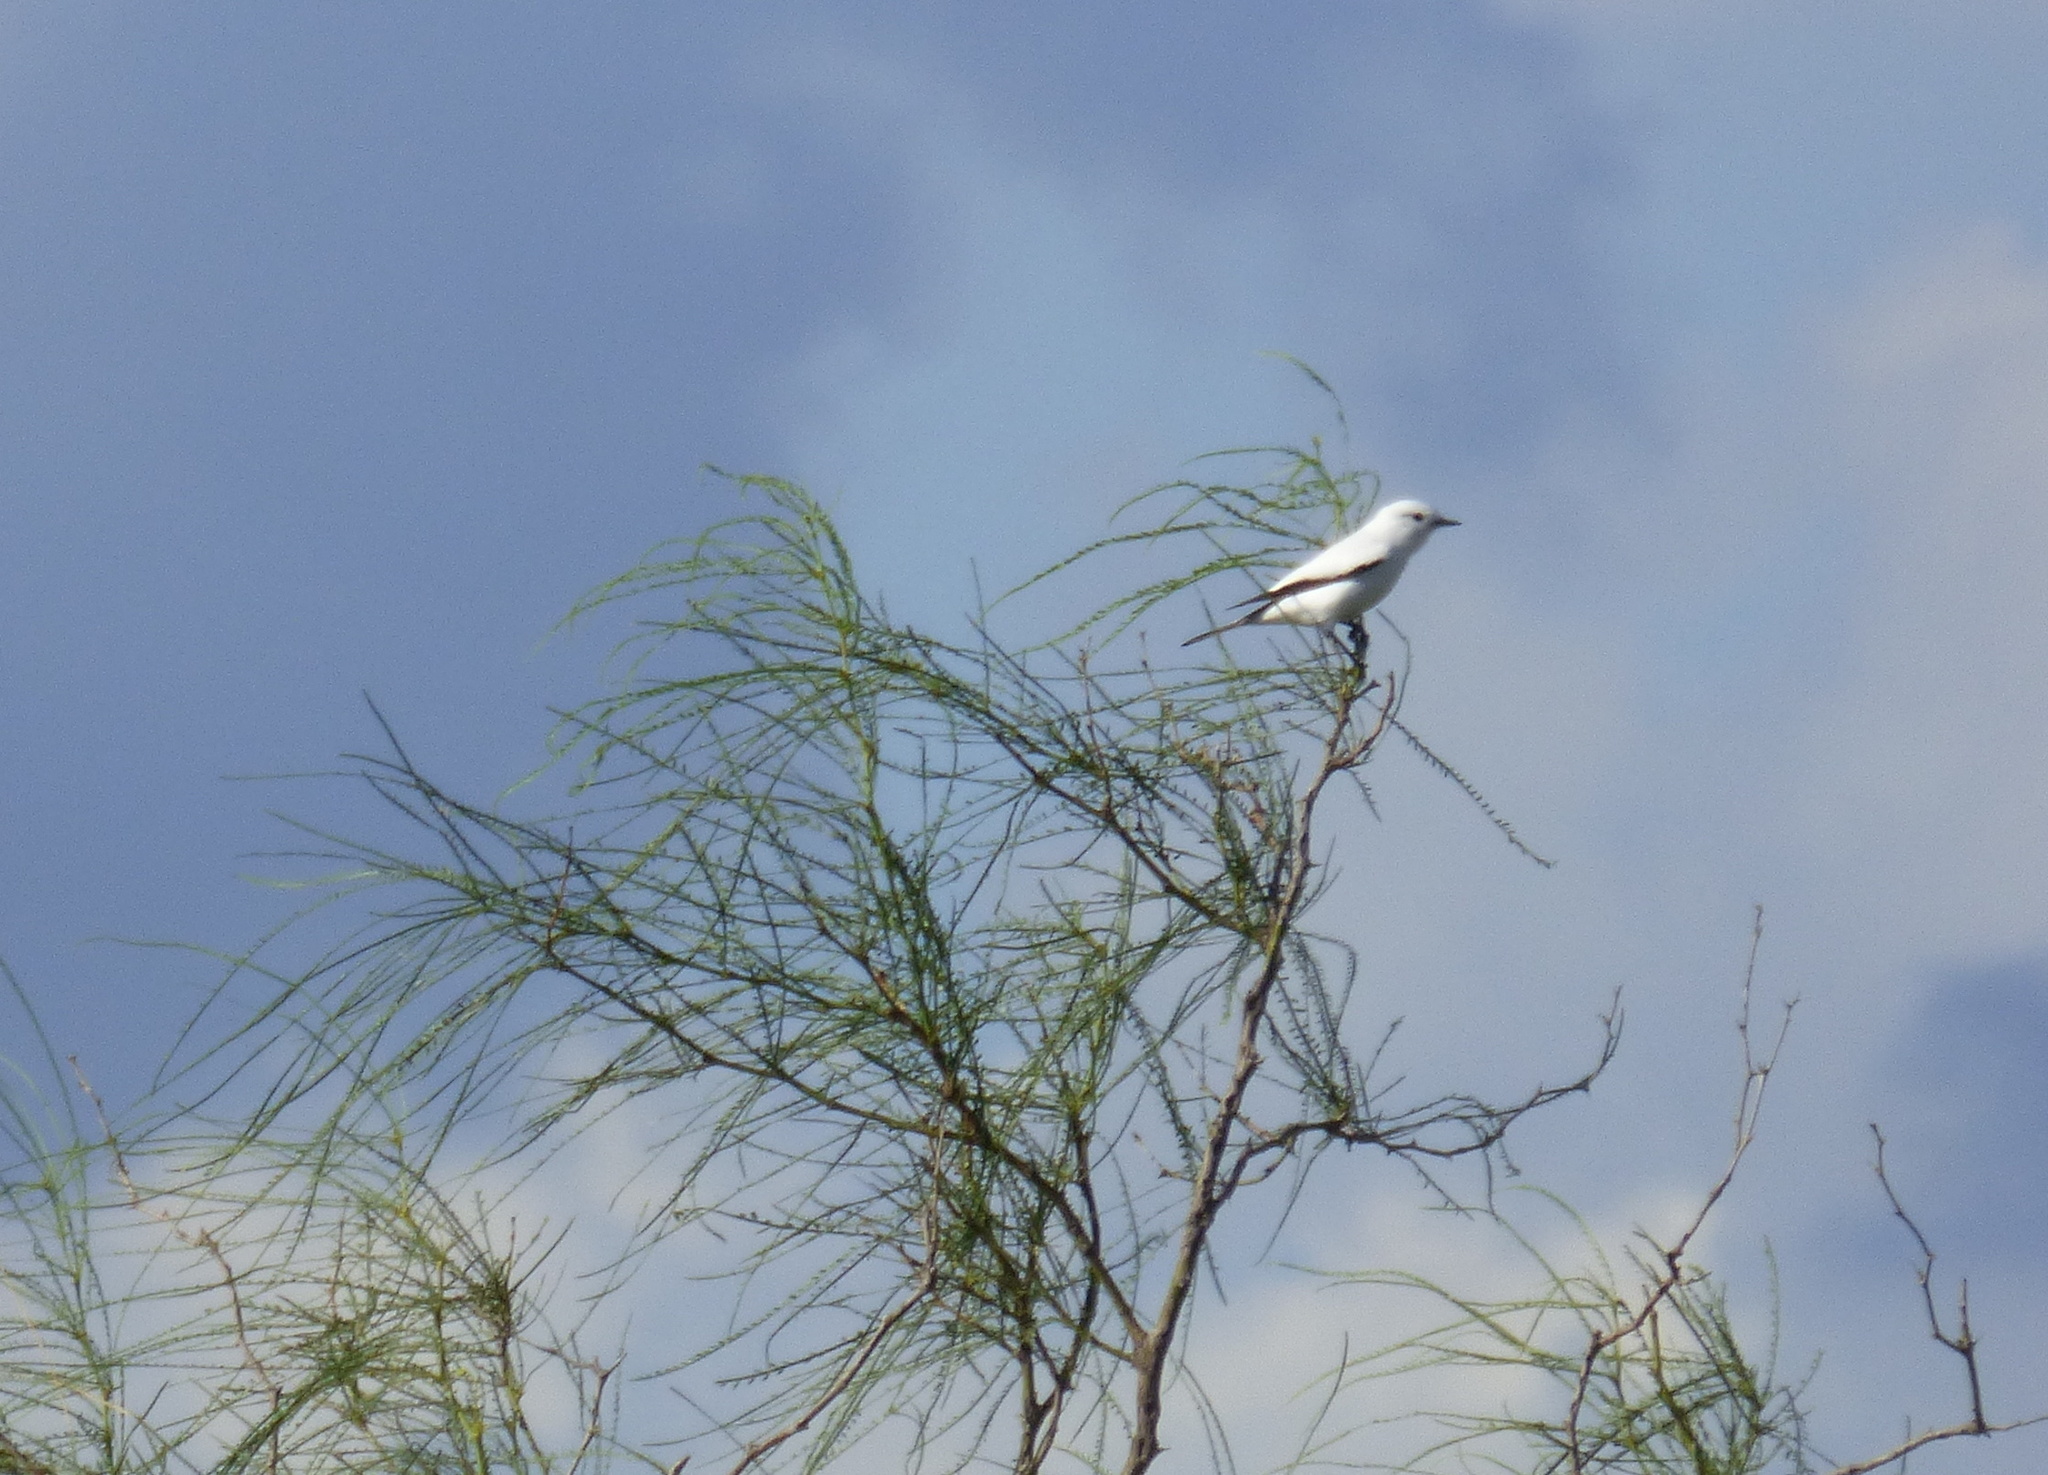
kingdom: Animalia
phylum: Chordata
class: Aves
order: Passeriformes
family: Tyrannidae
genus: Xolmis
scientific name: Xolmis irupero
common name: White monjita
